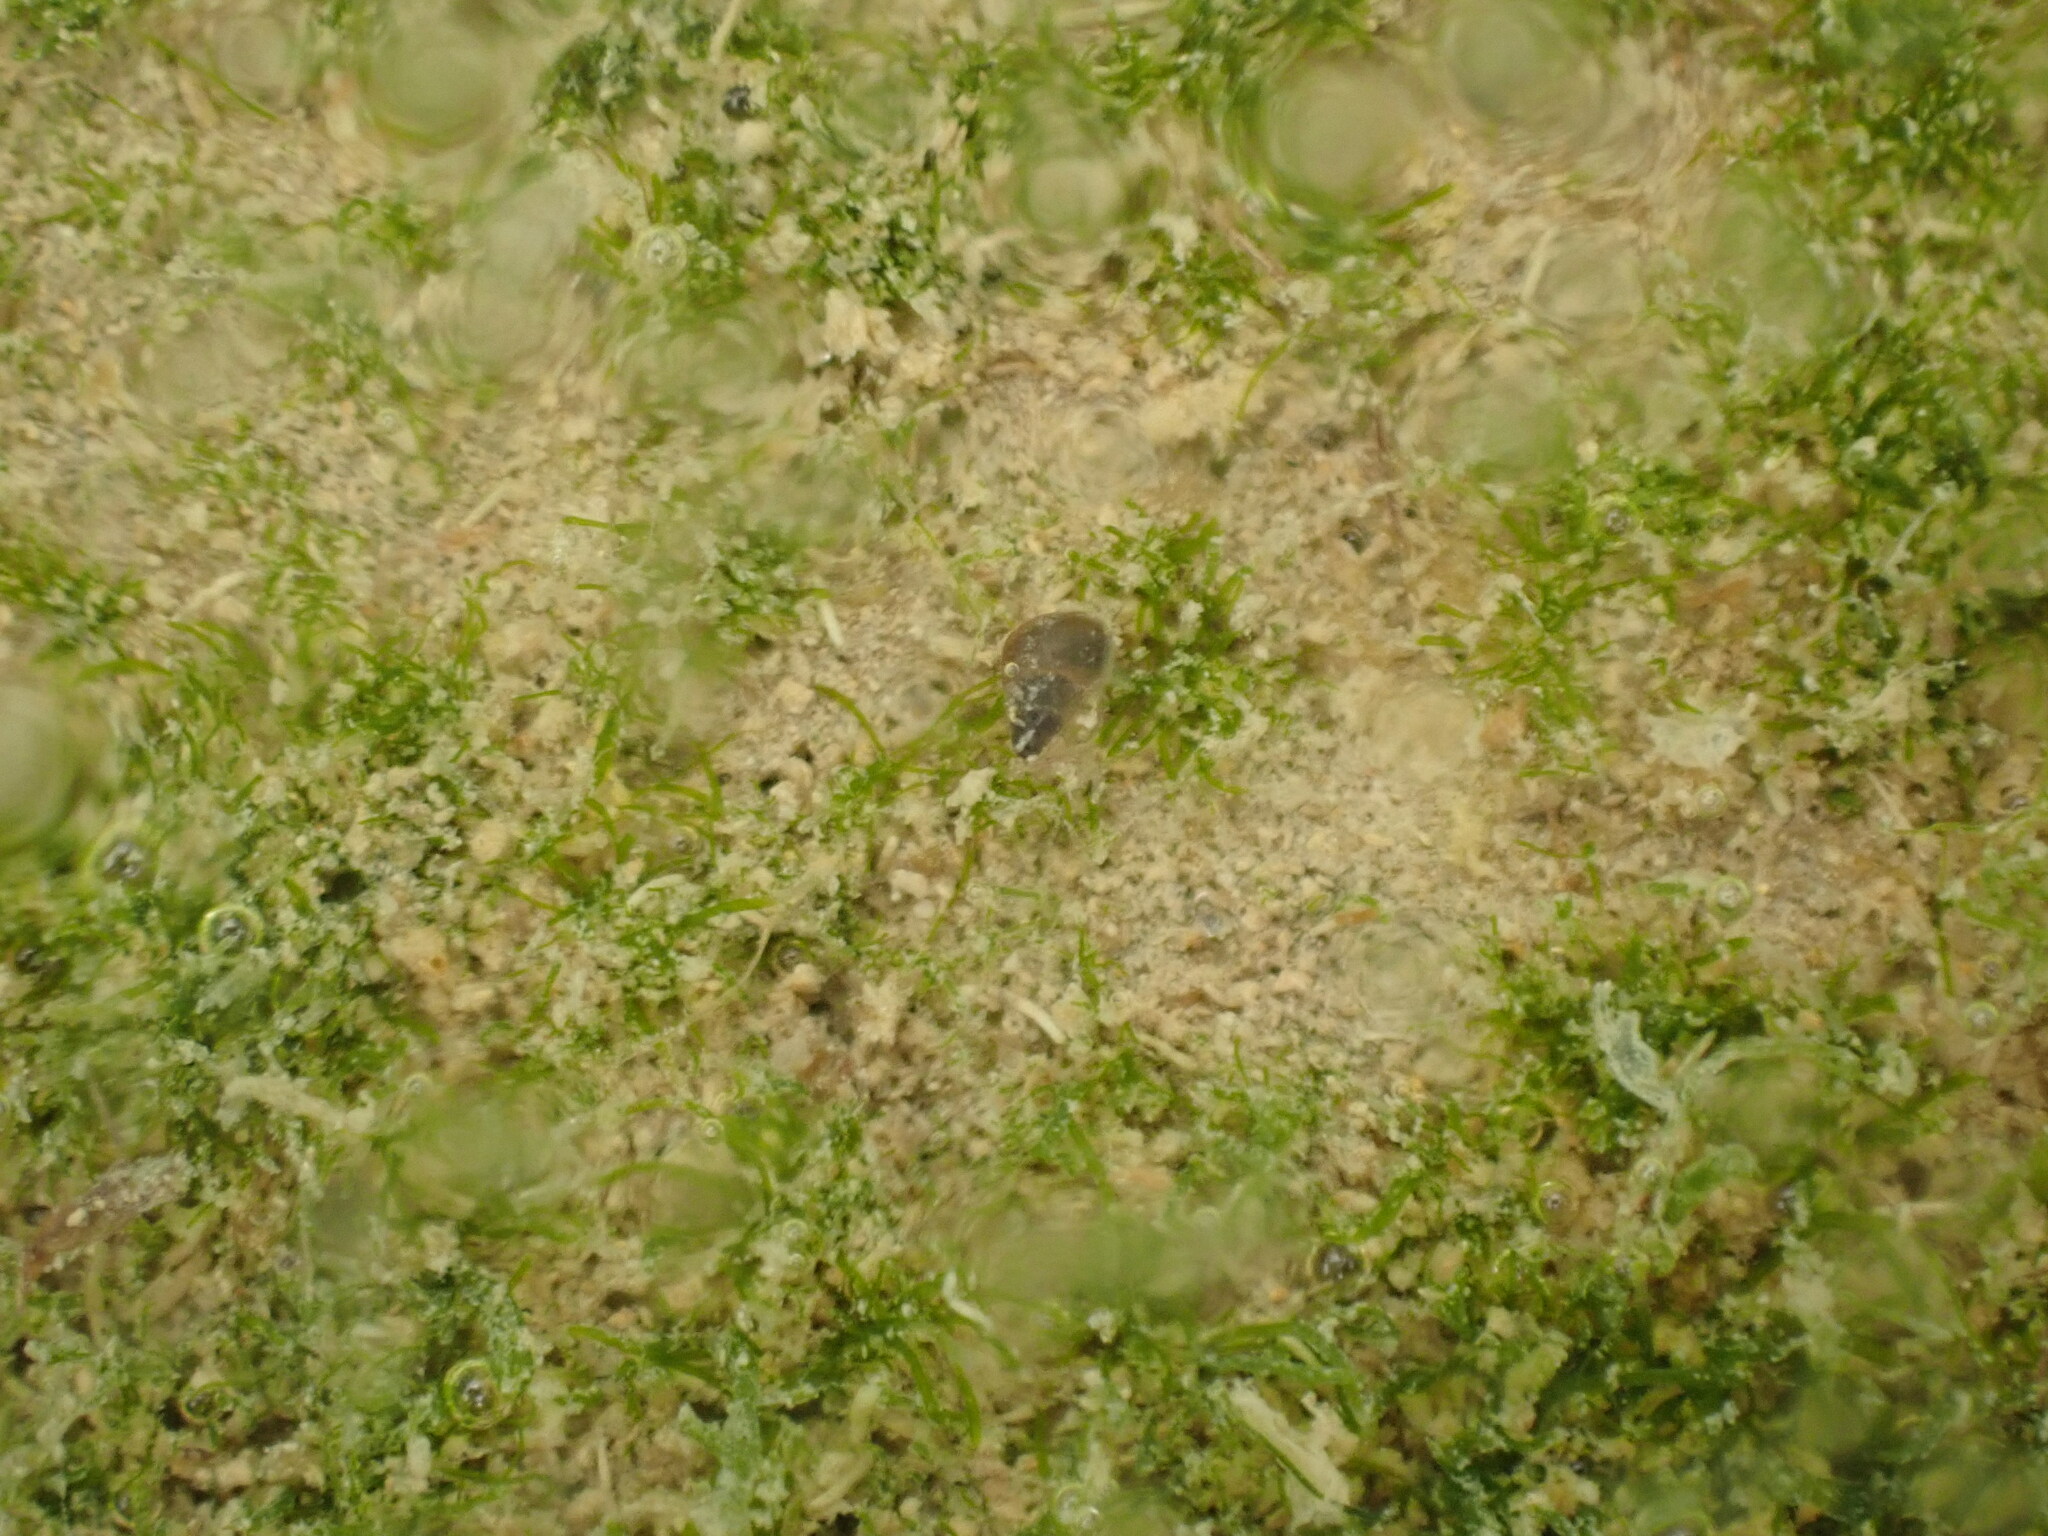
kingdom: Animalia
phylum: Mollusca
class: Gastropoda
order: Littorinimorpha
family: Tateidae
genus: Potamopyrgus
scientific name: Potamopyrgus estuarinus
